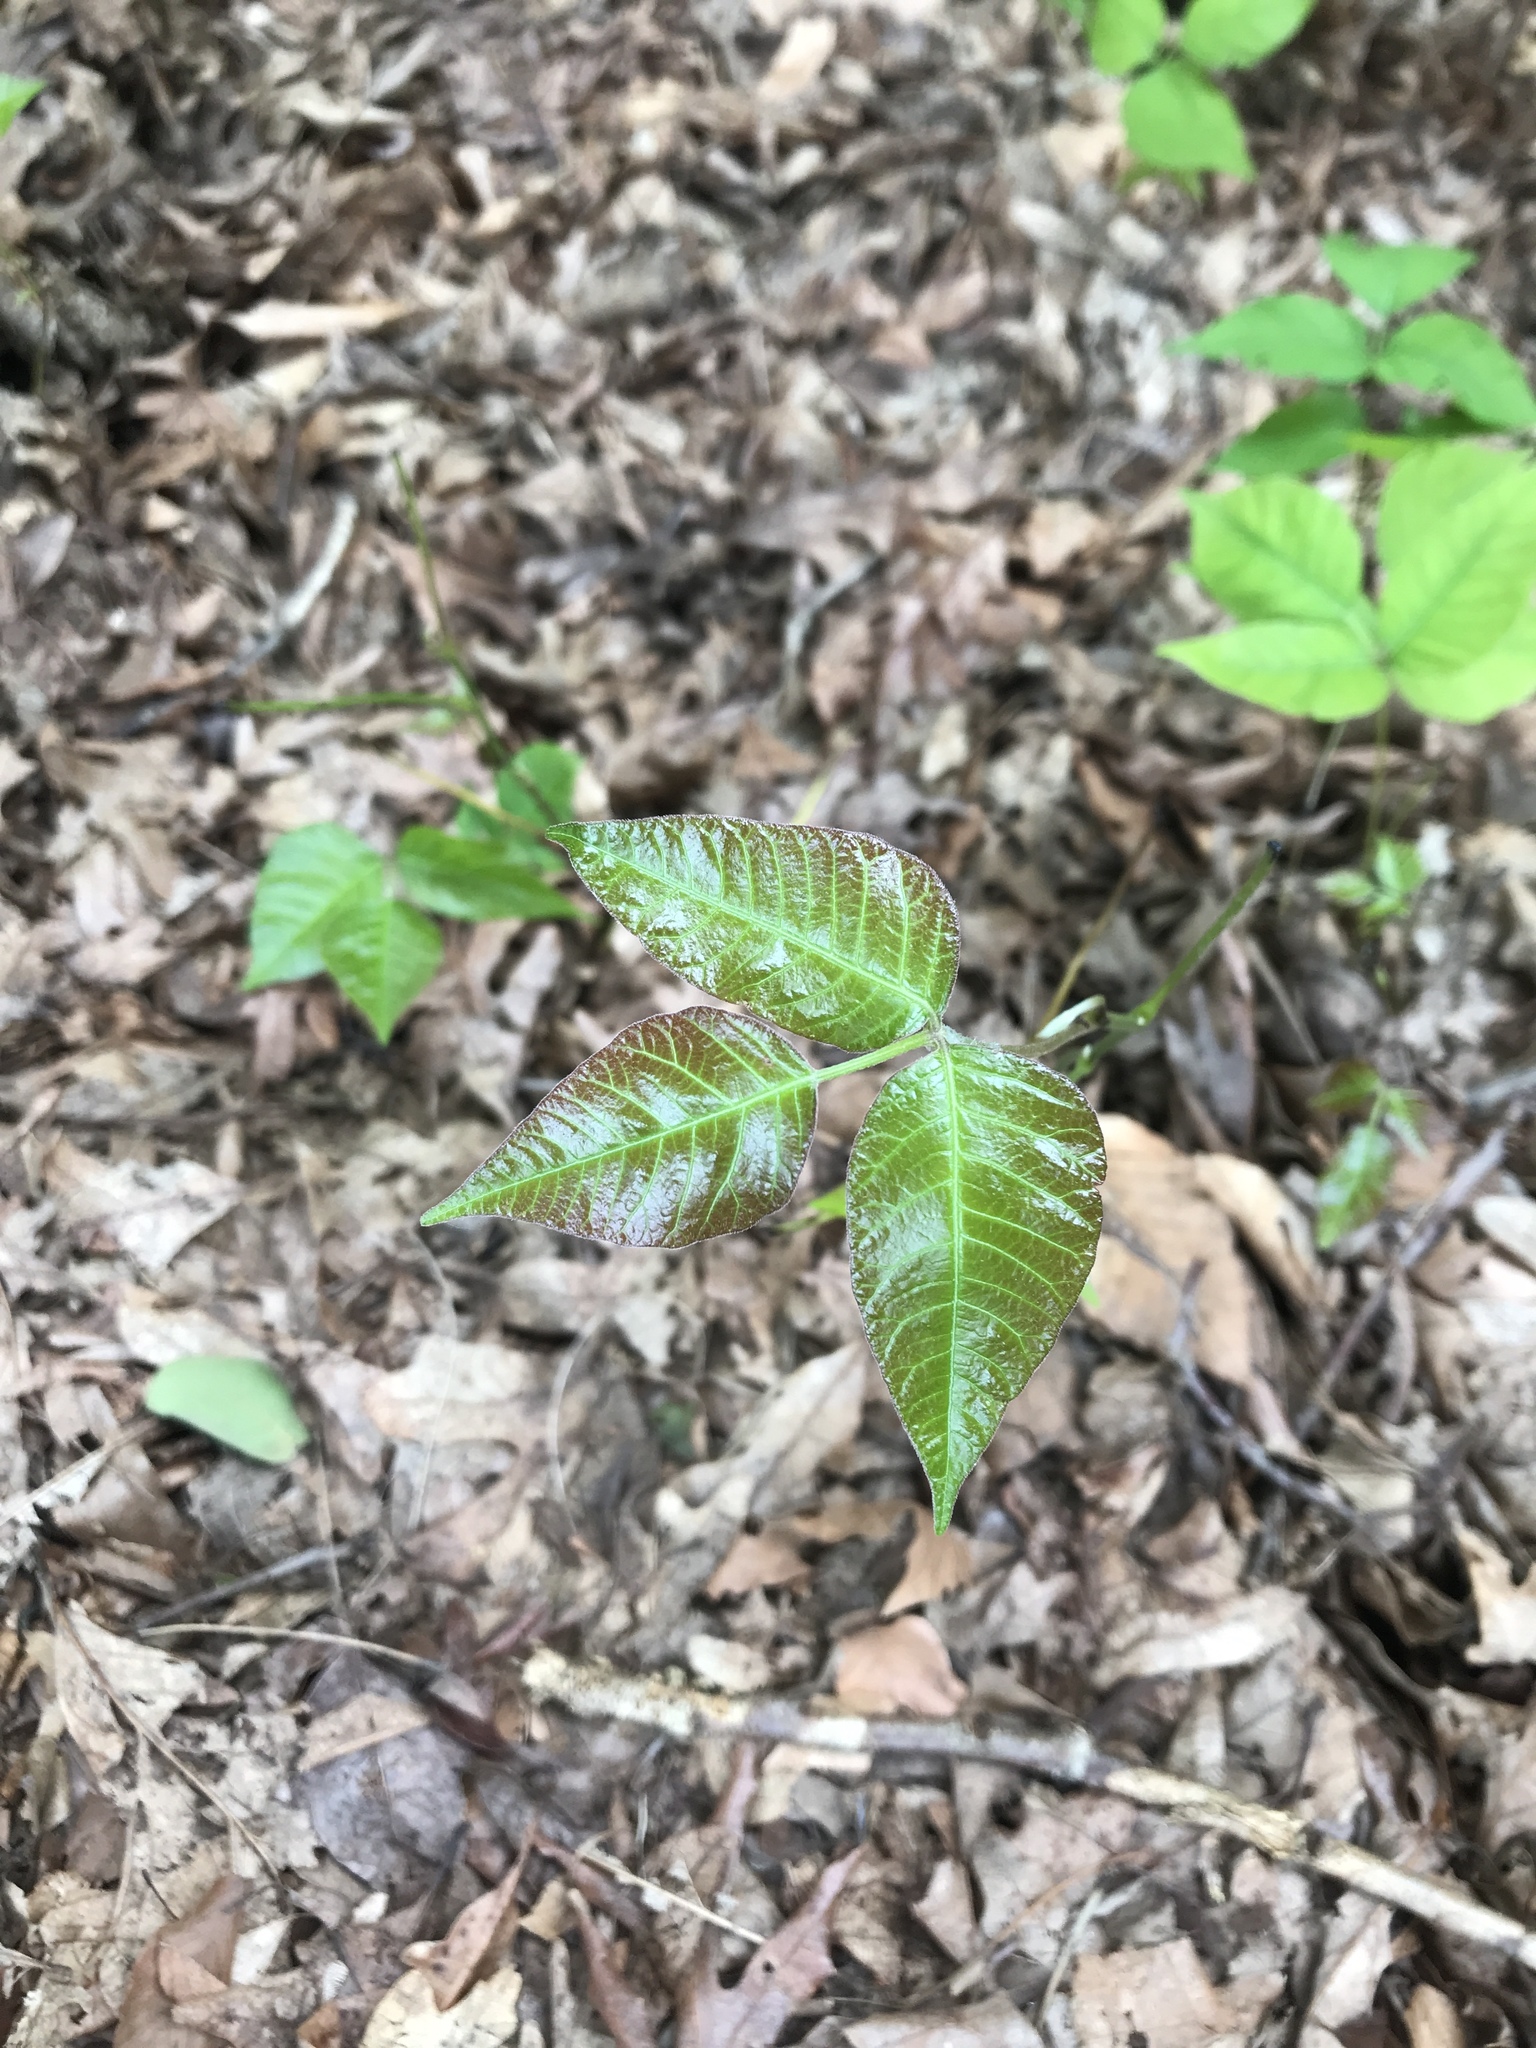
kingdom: Plantae
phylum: Tracheophyta
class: Magnoliopsida
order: Sapindales
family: Anacardiaceae
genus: Toxicodendron
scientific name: Toxicodendron radicans
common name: Poison ivy
